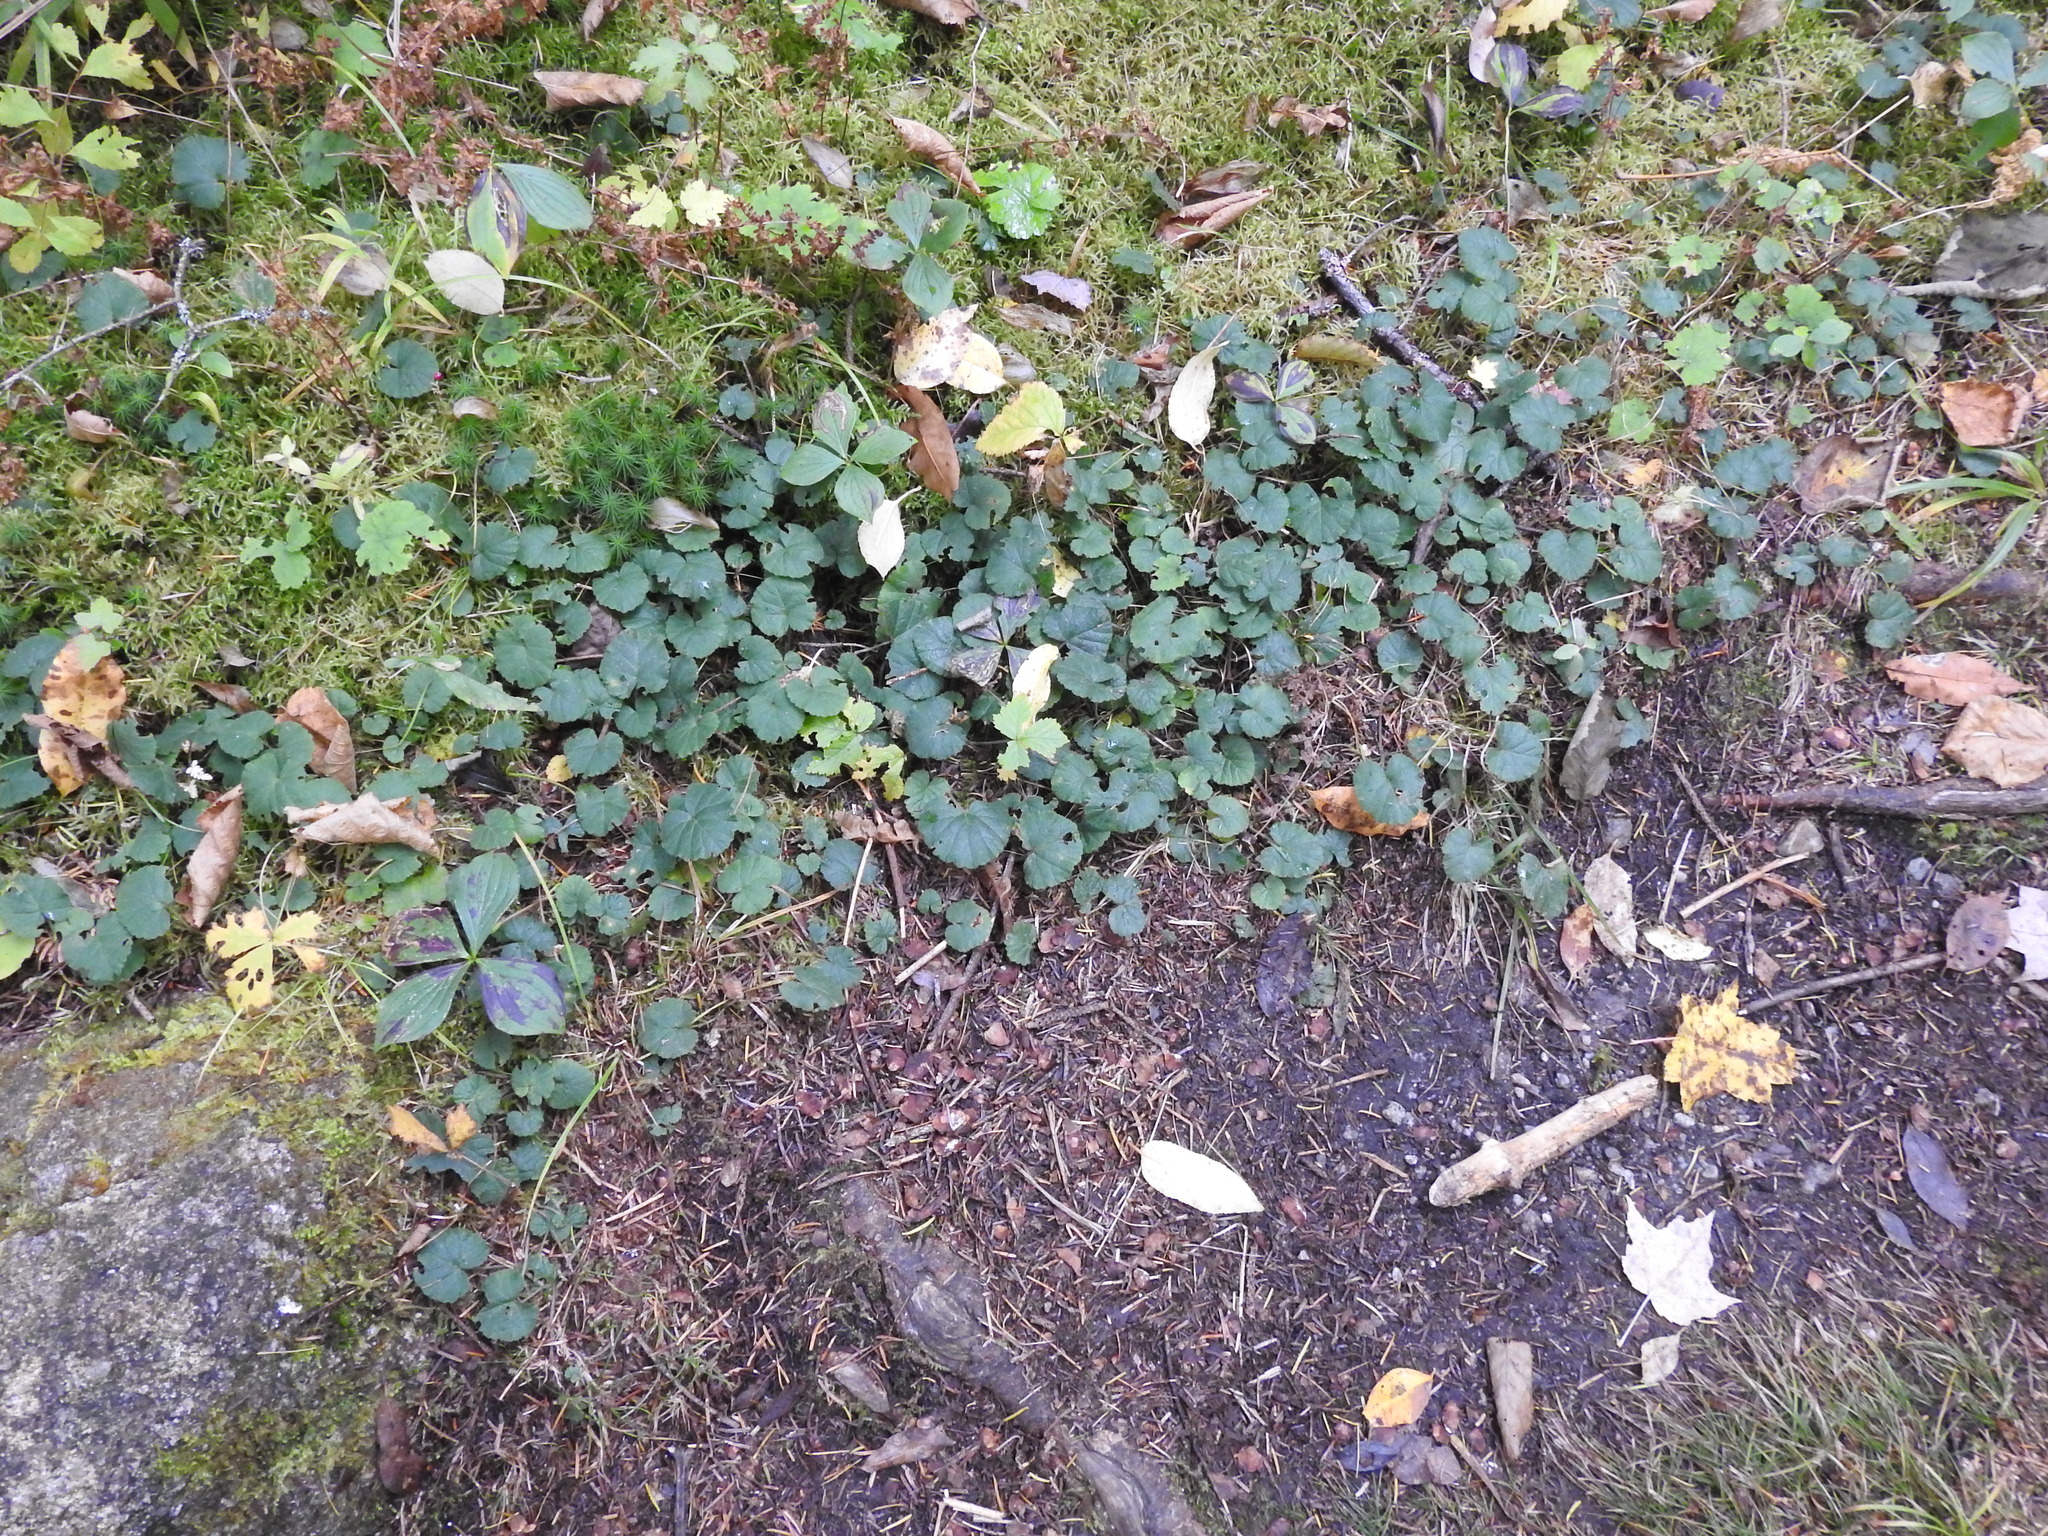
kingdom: Plantae
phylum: Tracheophyta
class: Magnoliopsida
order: Rosales
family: Rosaceae
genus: Dalibarda
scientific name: Dalibarda repens
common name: Dewdrop
